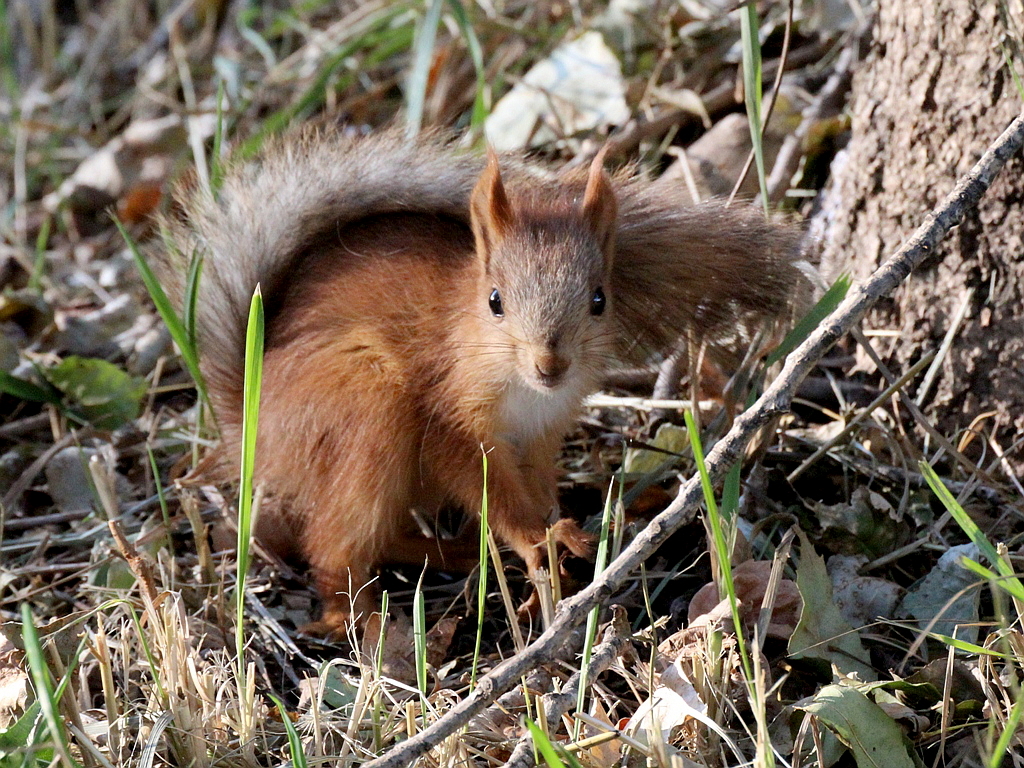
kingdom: Animalia
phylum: Chordata
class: Mammalia
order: Rodentia
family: Sciuridae
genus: Sciurus
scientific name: Sciurus vulgaris
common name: Eurasian red squirrel
